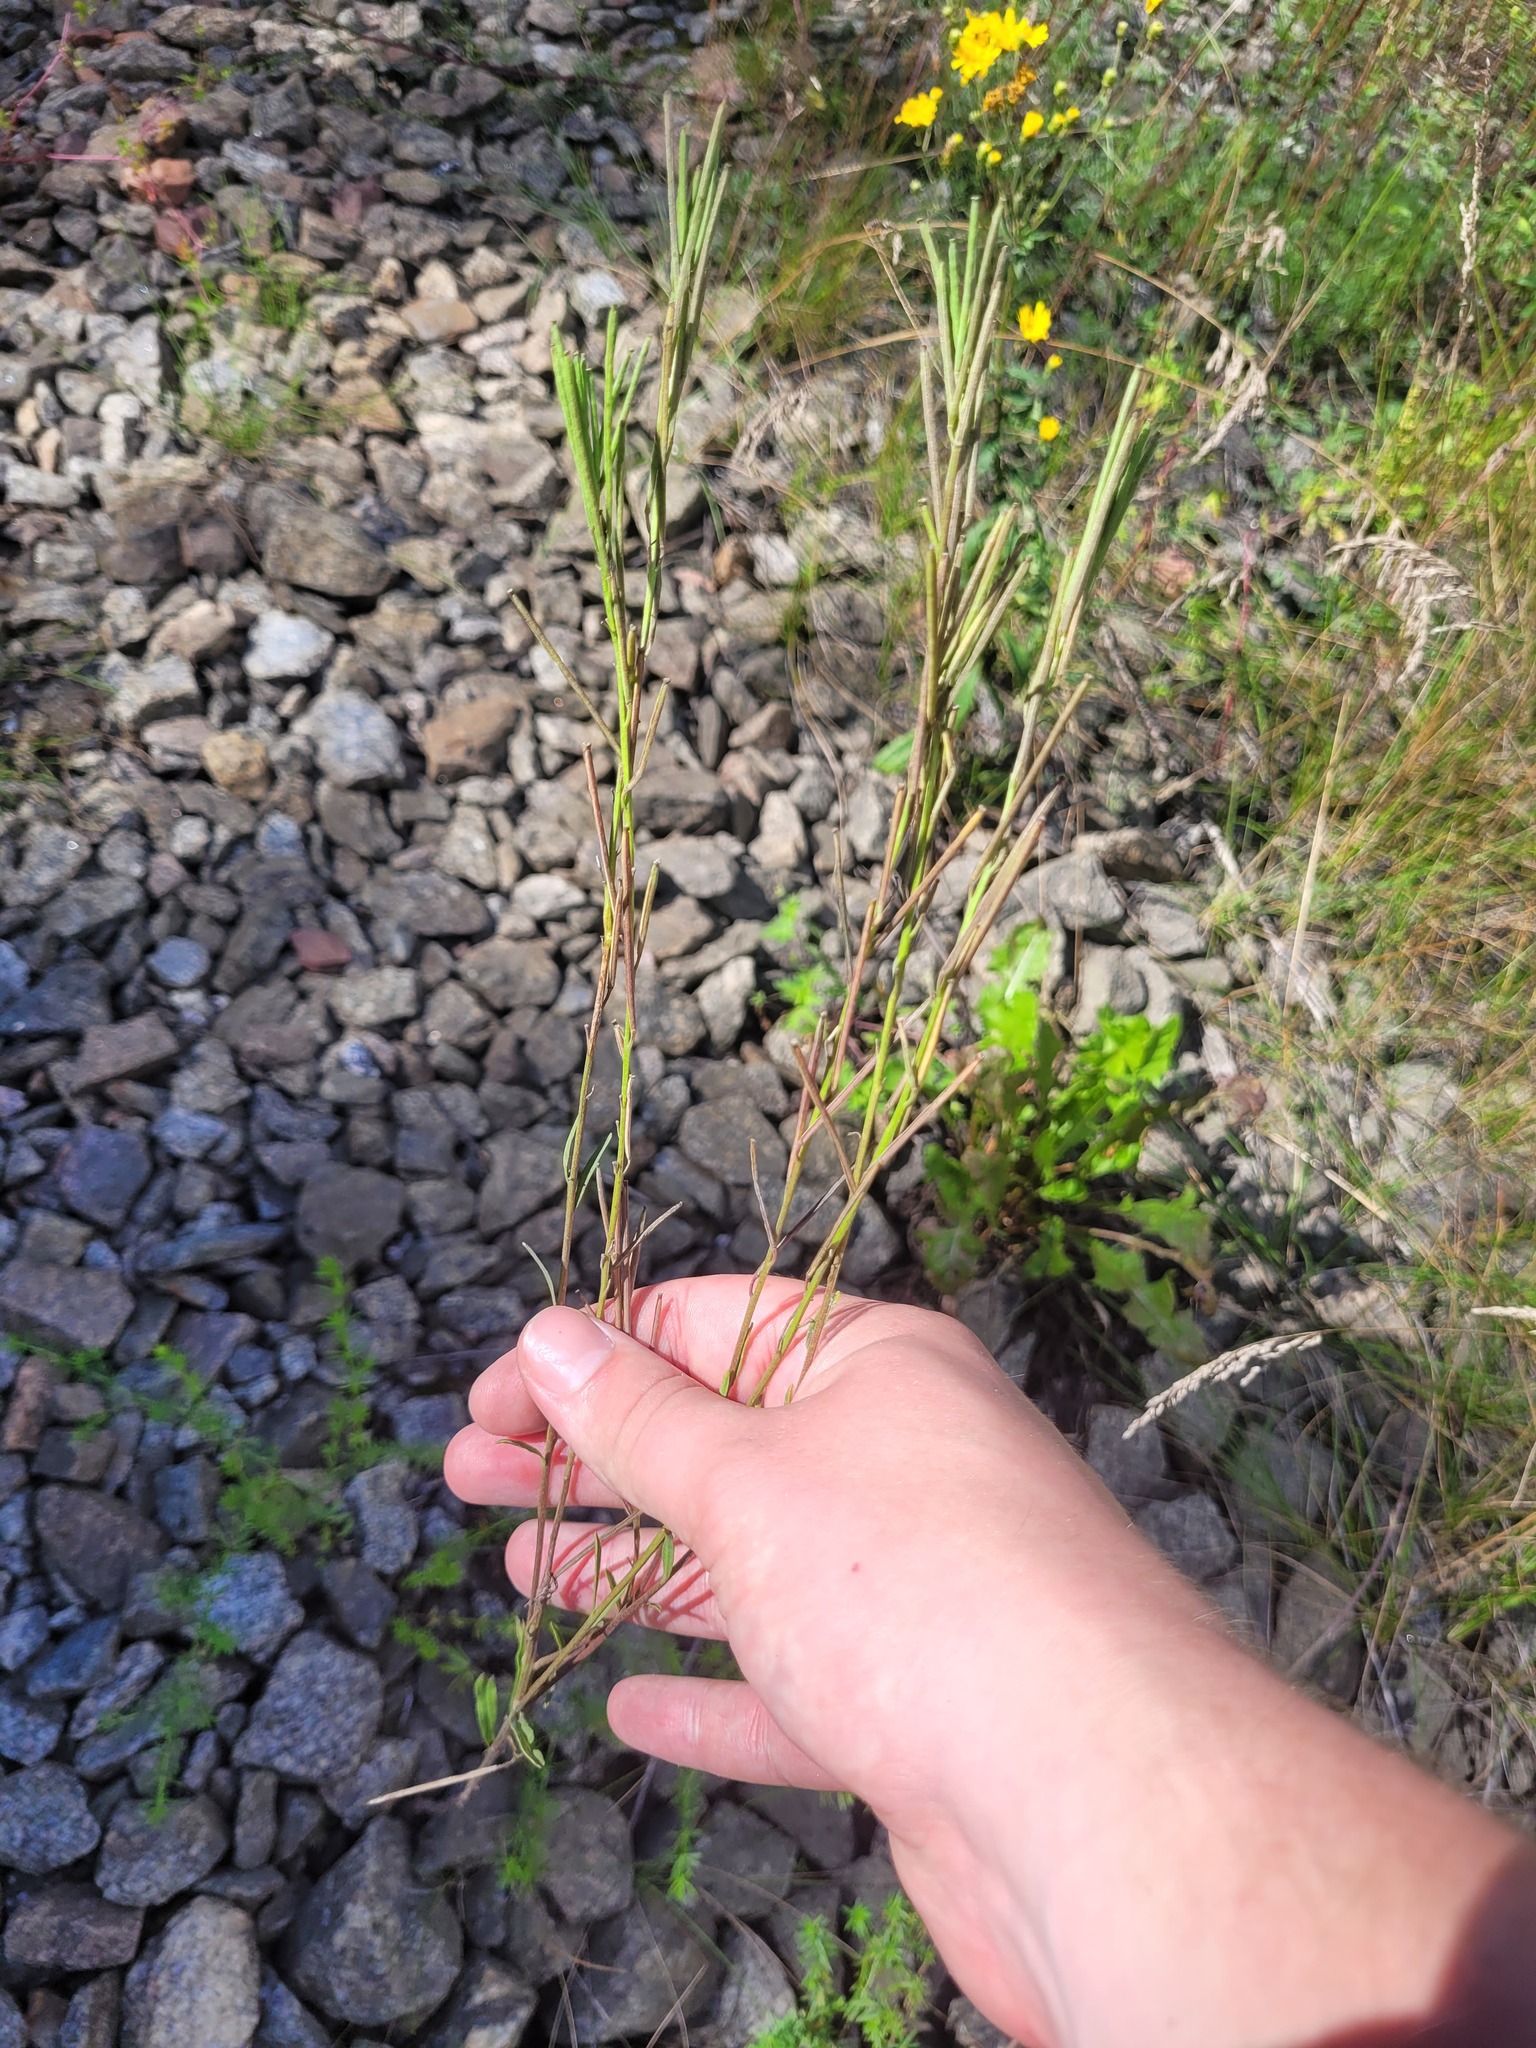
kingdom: Plantae
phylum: Tracheophyta
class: Magnoliopsida
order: Brassicales
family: Brassicaceae
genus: Erysimum
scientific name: Erysimum hieraciifolium
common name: European wallflower
